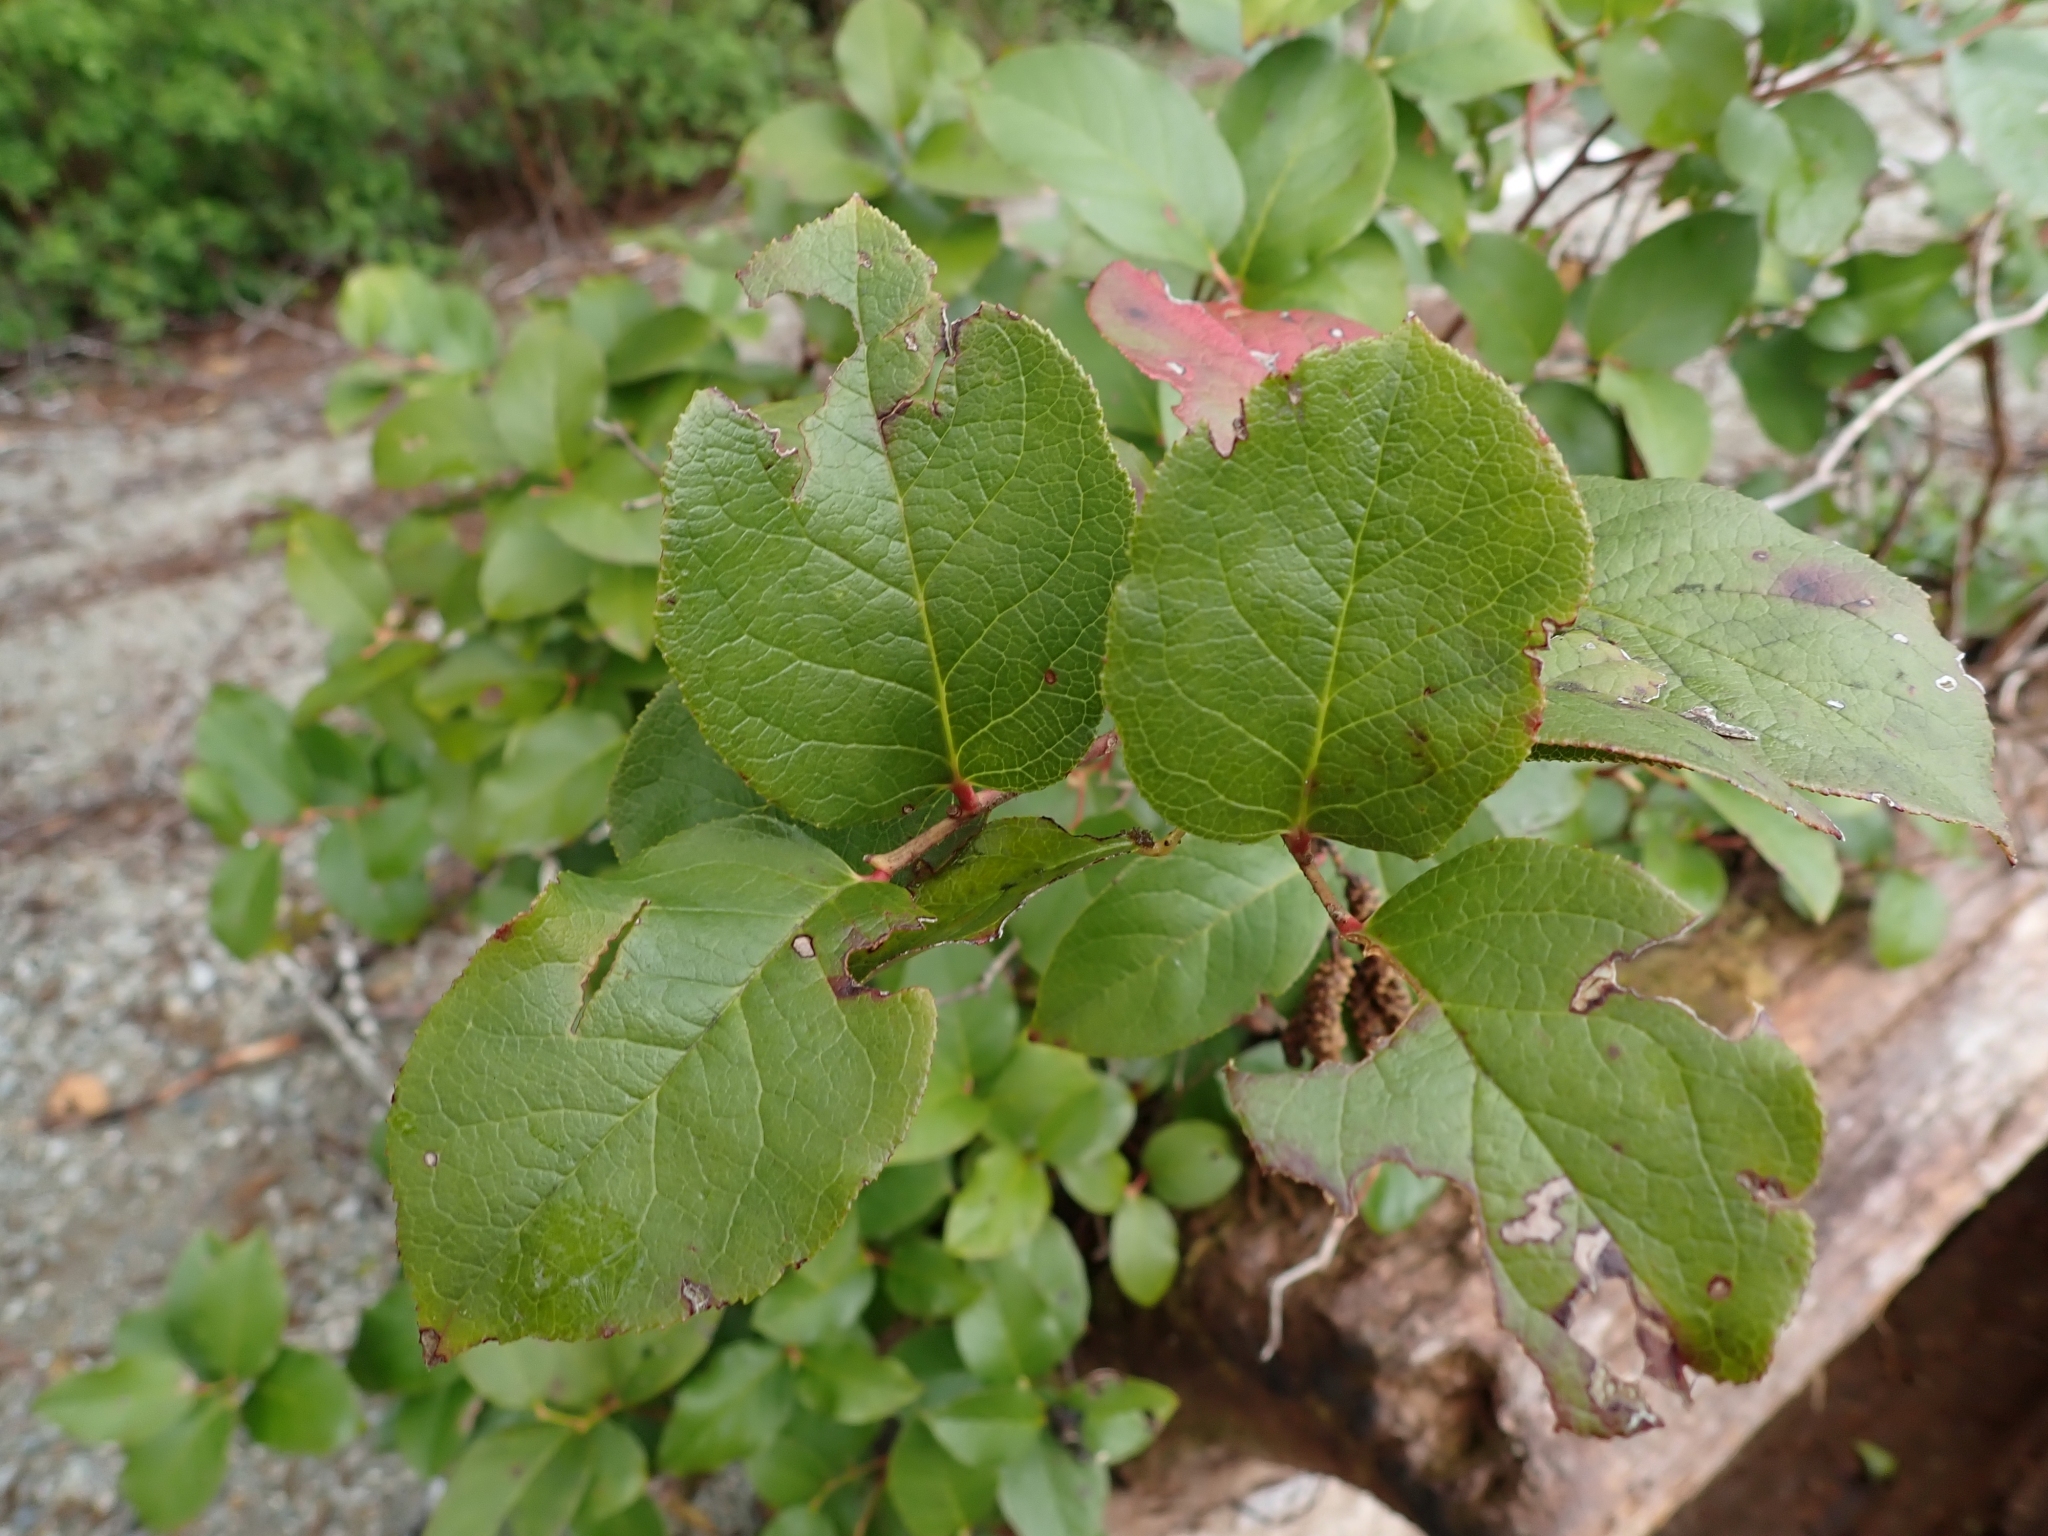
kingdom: Plantae
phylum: Tracheophyta
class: Magnoliopsida
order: Ericales
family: Ericaceae
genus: Gaultheria
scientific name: Gaultheria shallon
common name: Shallon
